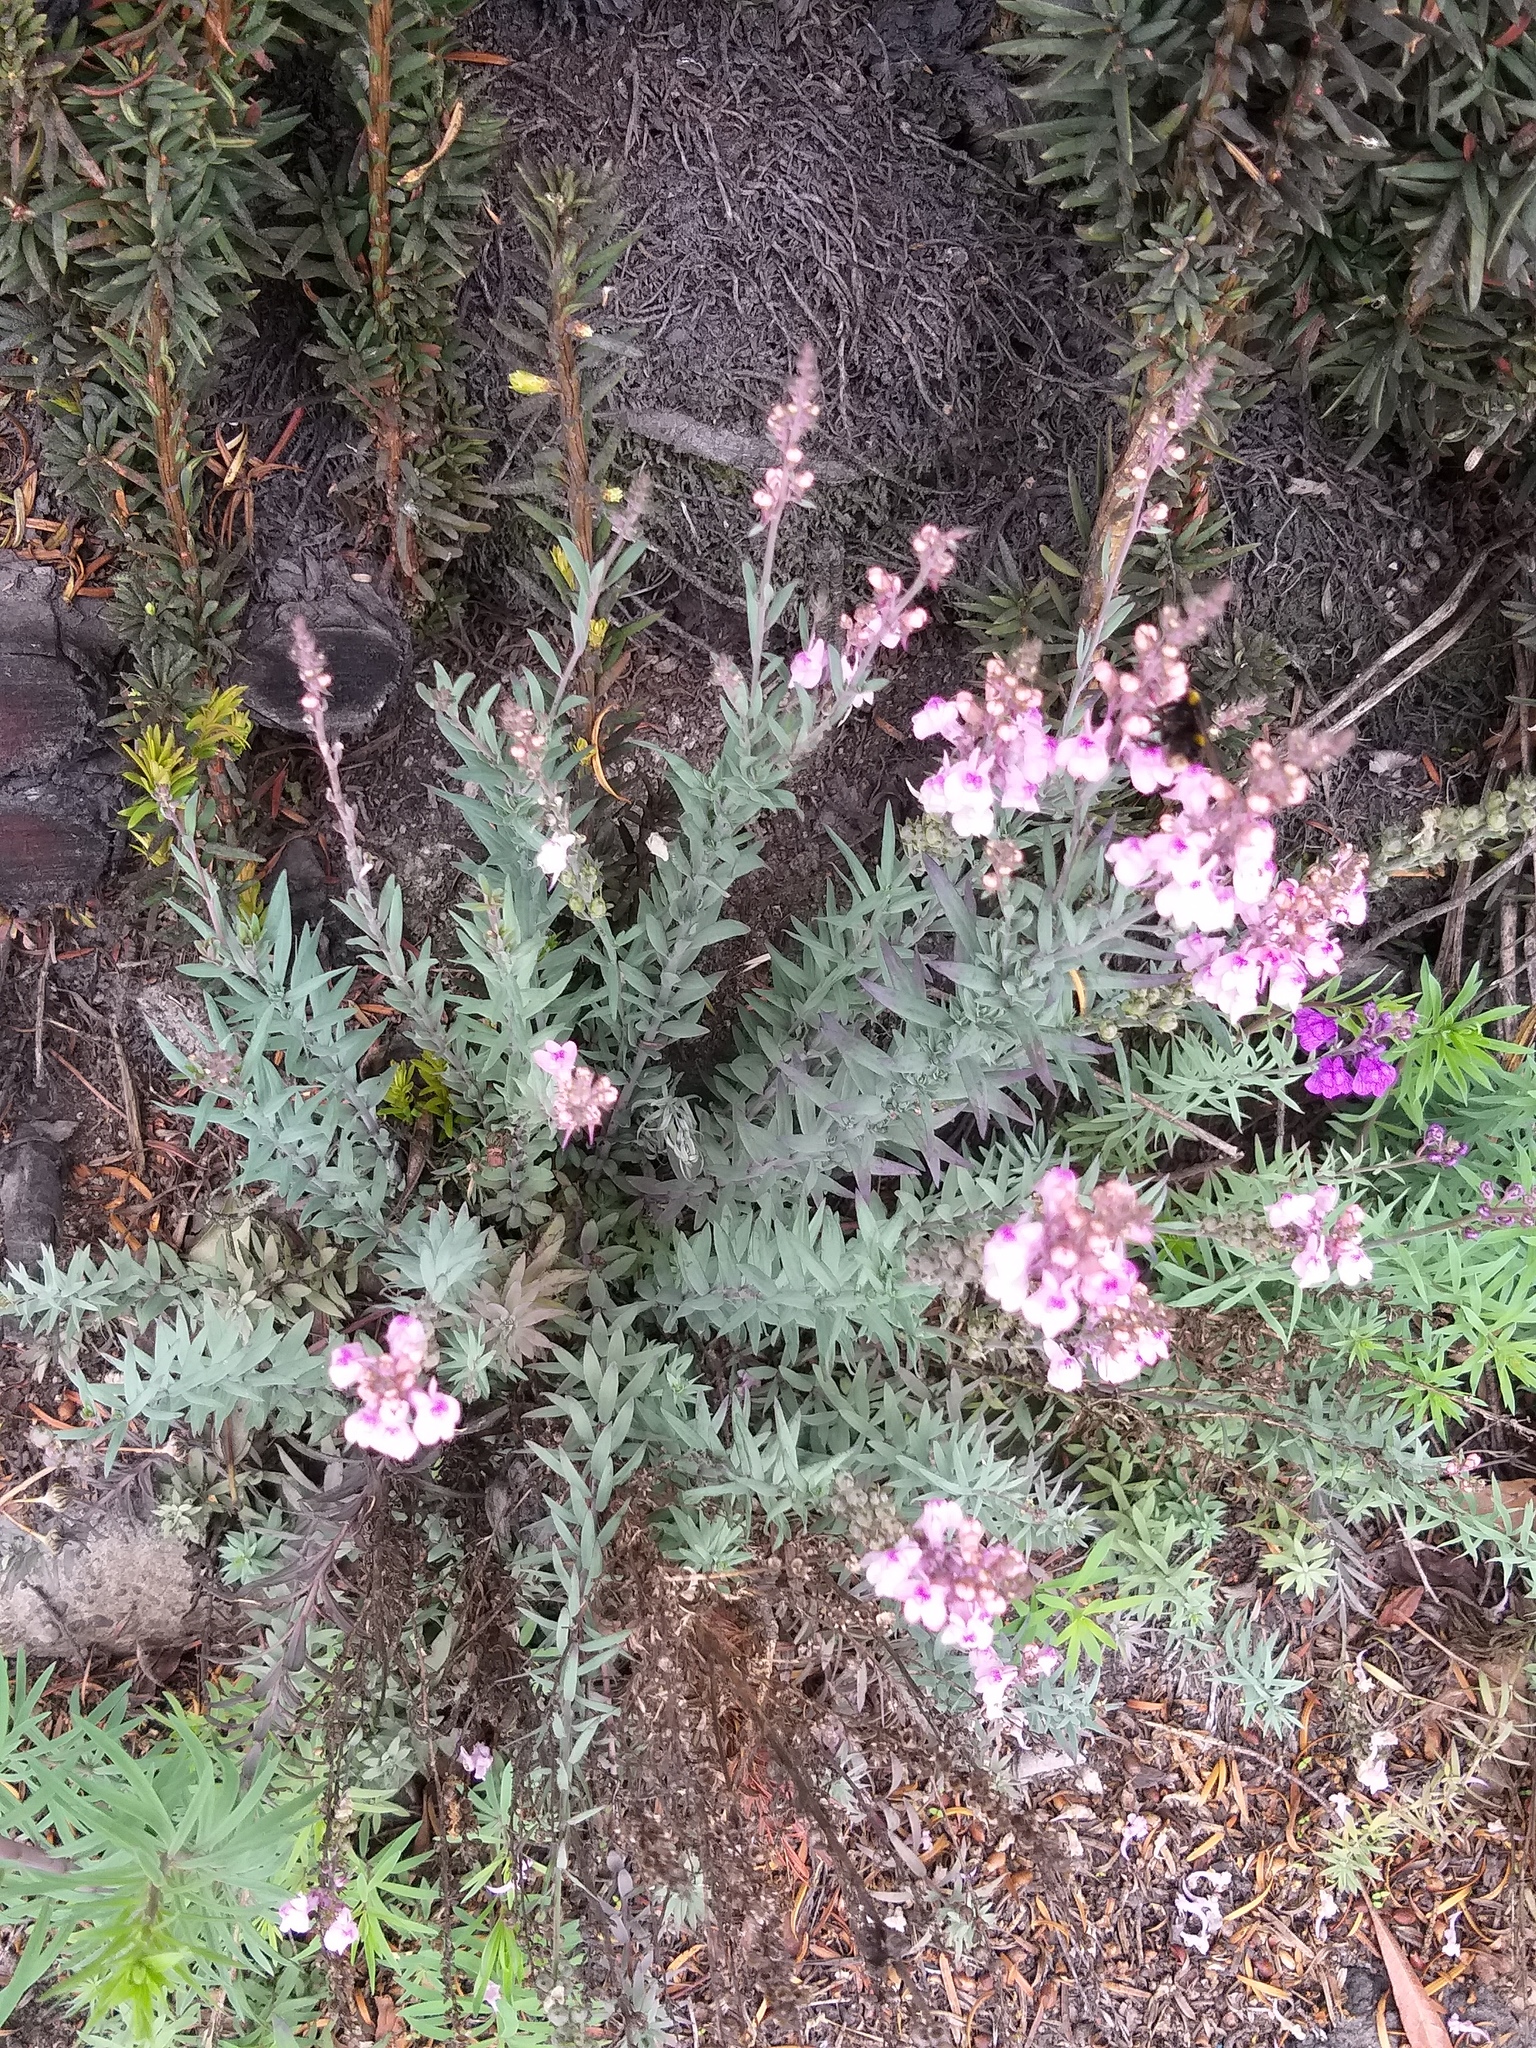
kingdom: Plantae
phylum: Tracheophyta
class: Magnoliopsida
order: Lamiales
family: Plantaginaceae
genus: Linaria
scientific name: Linaria purpurea
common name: Purple toadflax
